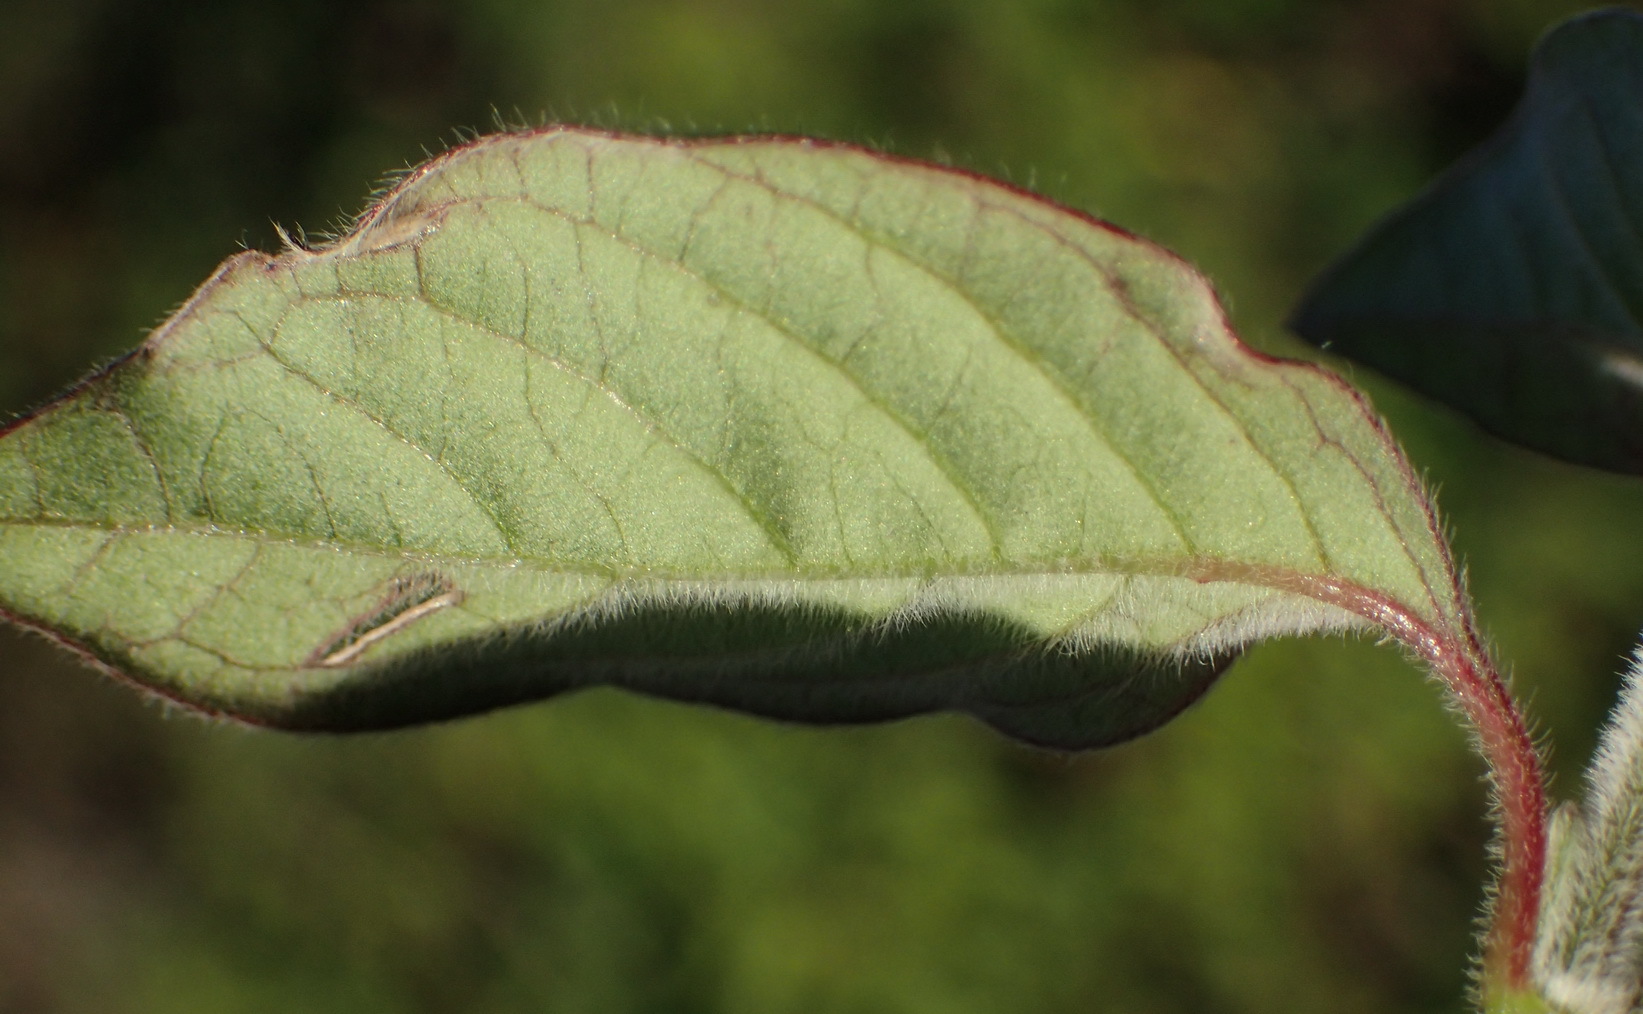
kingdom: Plantae
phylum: Tracheophyta
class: Magnoliopsida
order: Caryophyllales
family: Amaranthaceae
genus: Achyranthes
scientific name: Achyranthes aspera
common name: Devil's horsewhip
